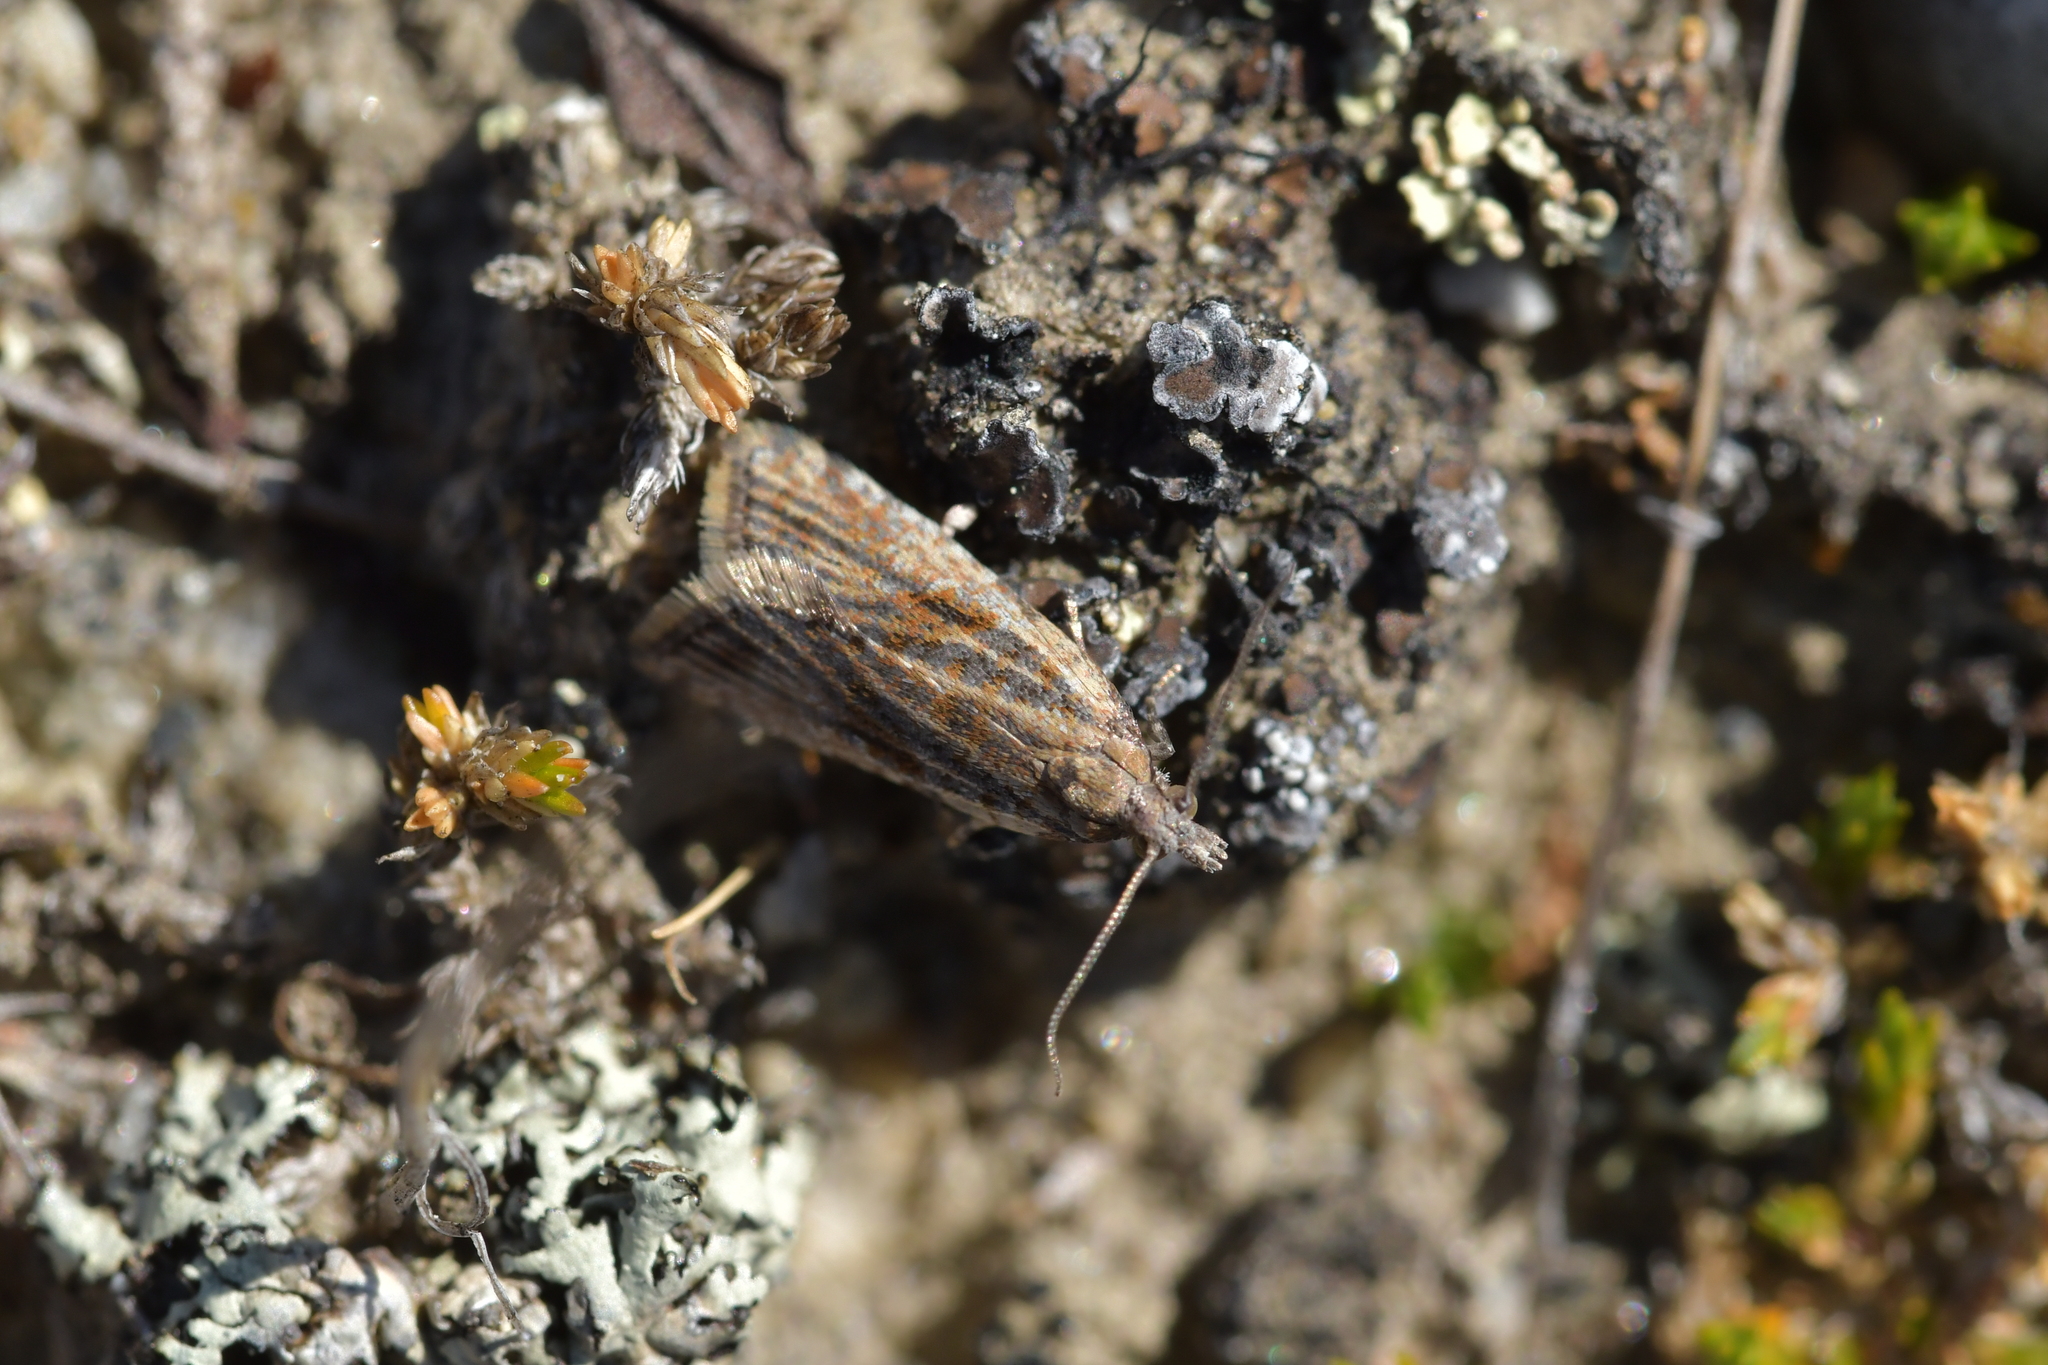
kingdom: Animalia
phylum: Arthropoda
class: Insecta
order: Lepidoptera
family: Tortricidae
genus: Capua
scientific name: Capua semiferana
